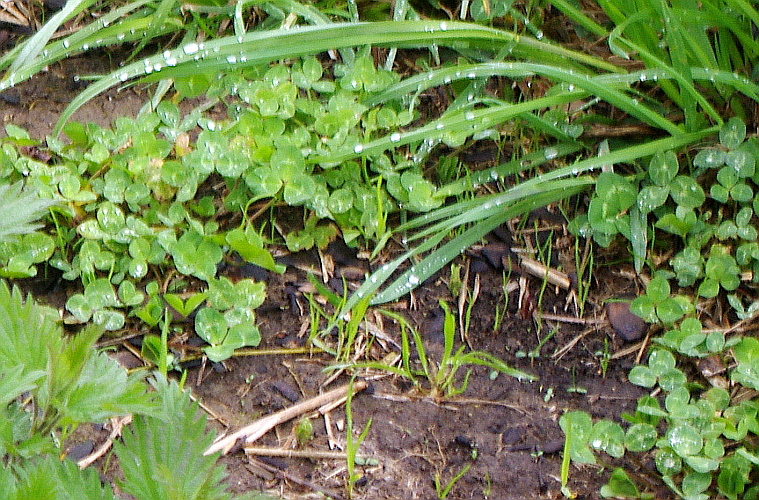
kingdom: Plantae
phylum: Tracheophyta
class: Magnoliopsida
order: Fabales
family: Fabaceae
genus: Trifolium
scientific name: Trifolium repens
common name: White clover
